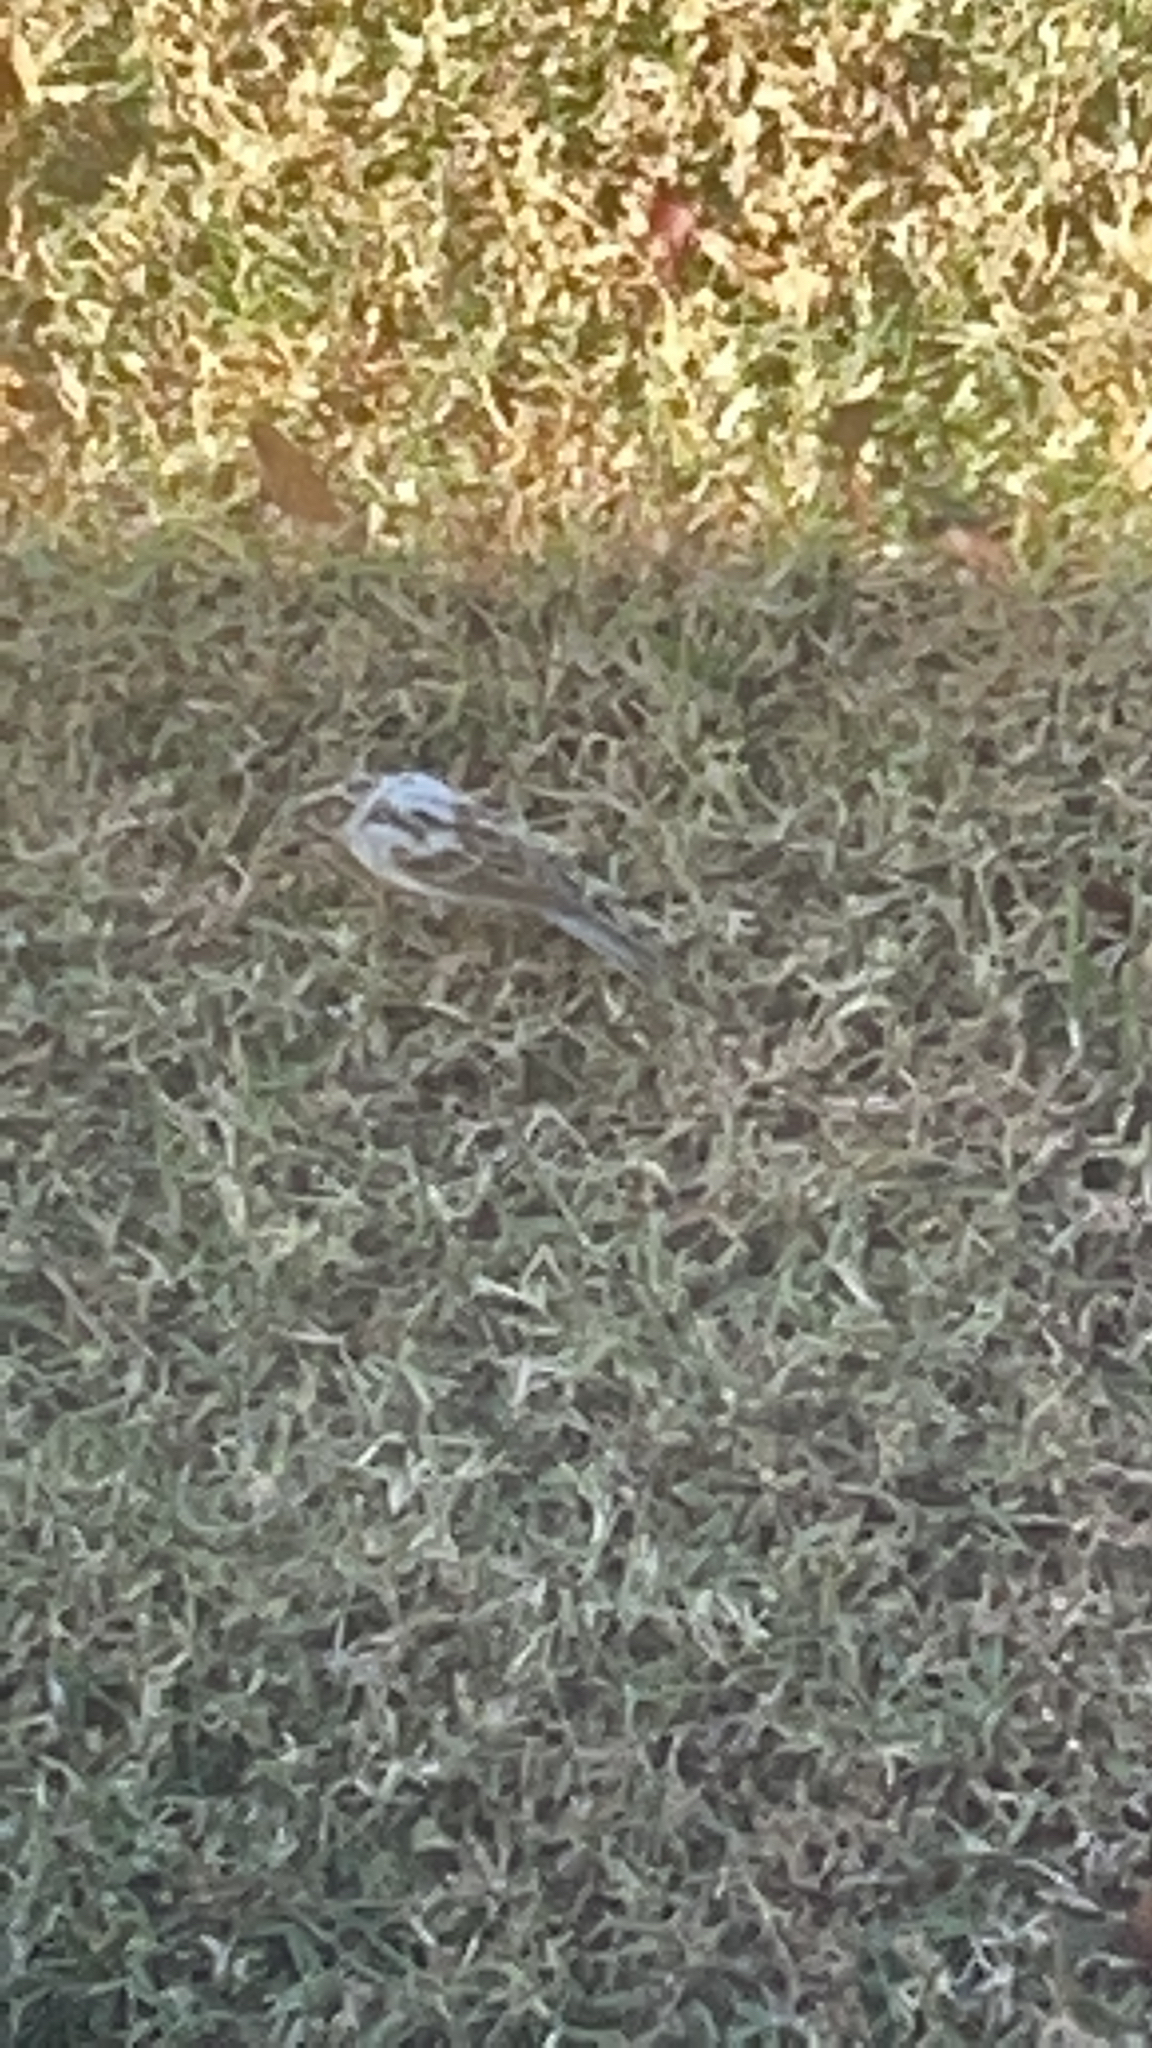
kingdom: Animalia
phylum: Chordata
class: Aves
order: Passeriformes
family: Passerellidae
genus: Spizella
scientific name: Spizella passerina
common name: Chipping sparrow
